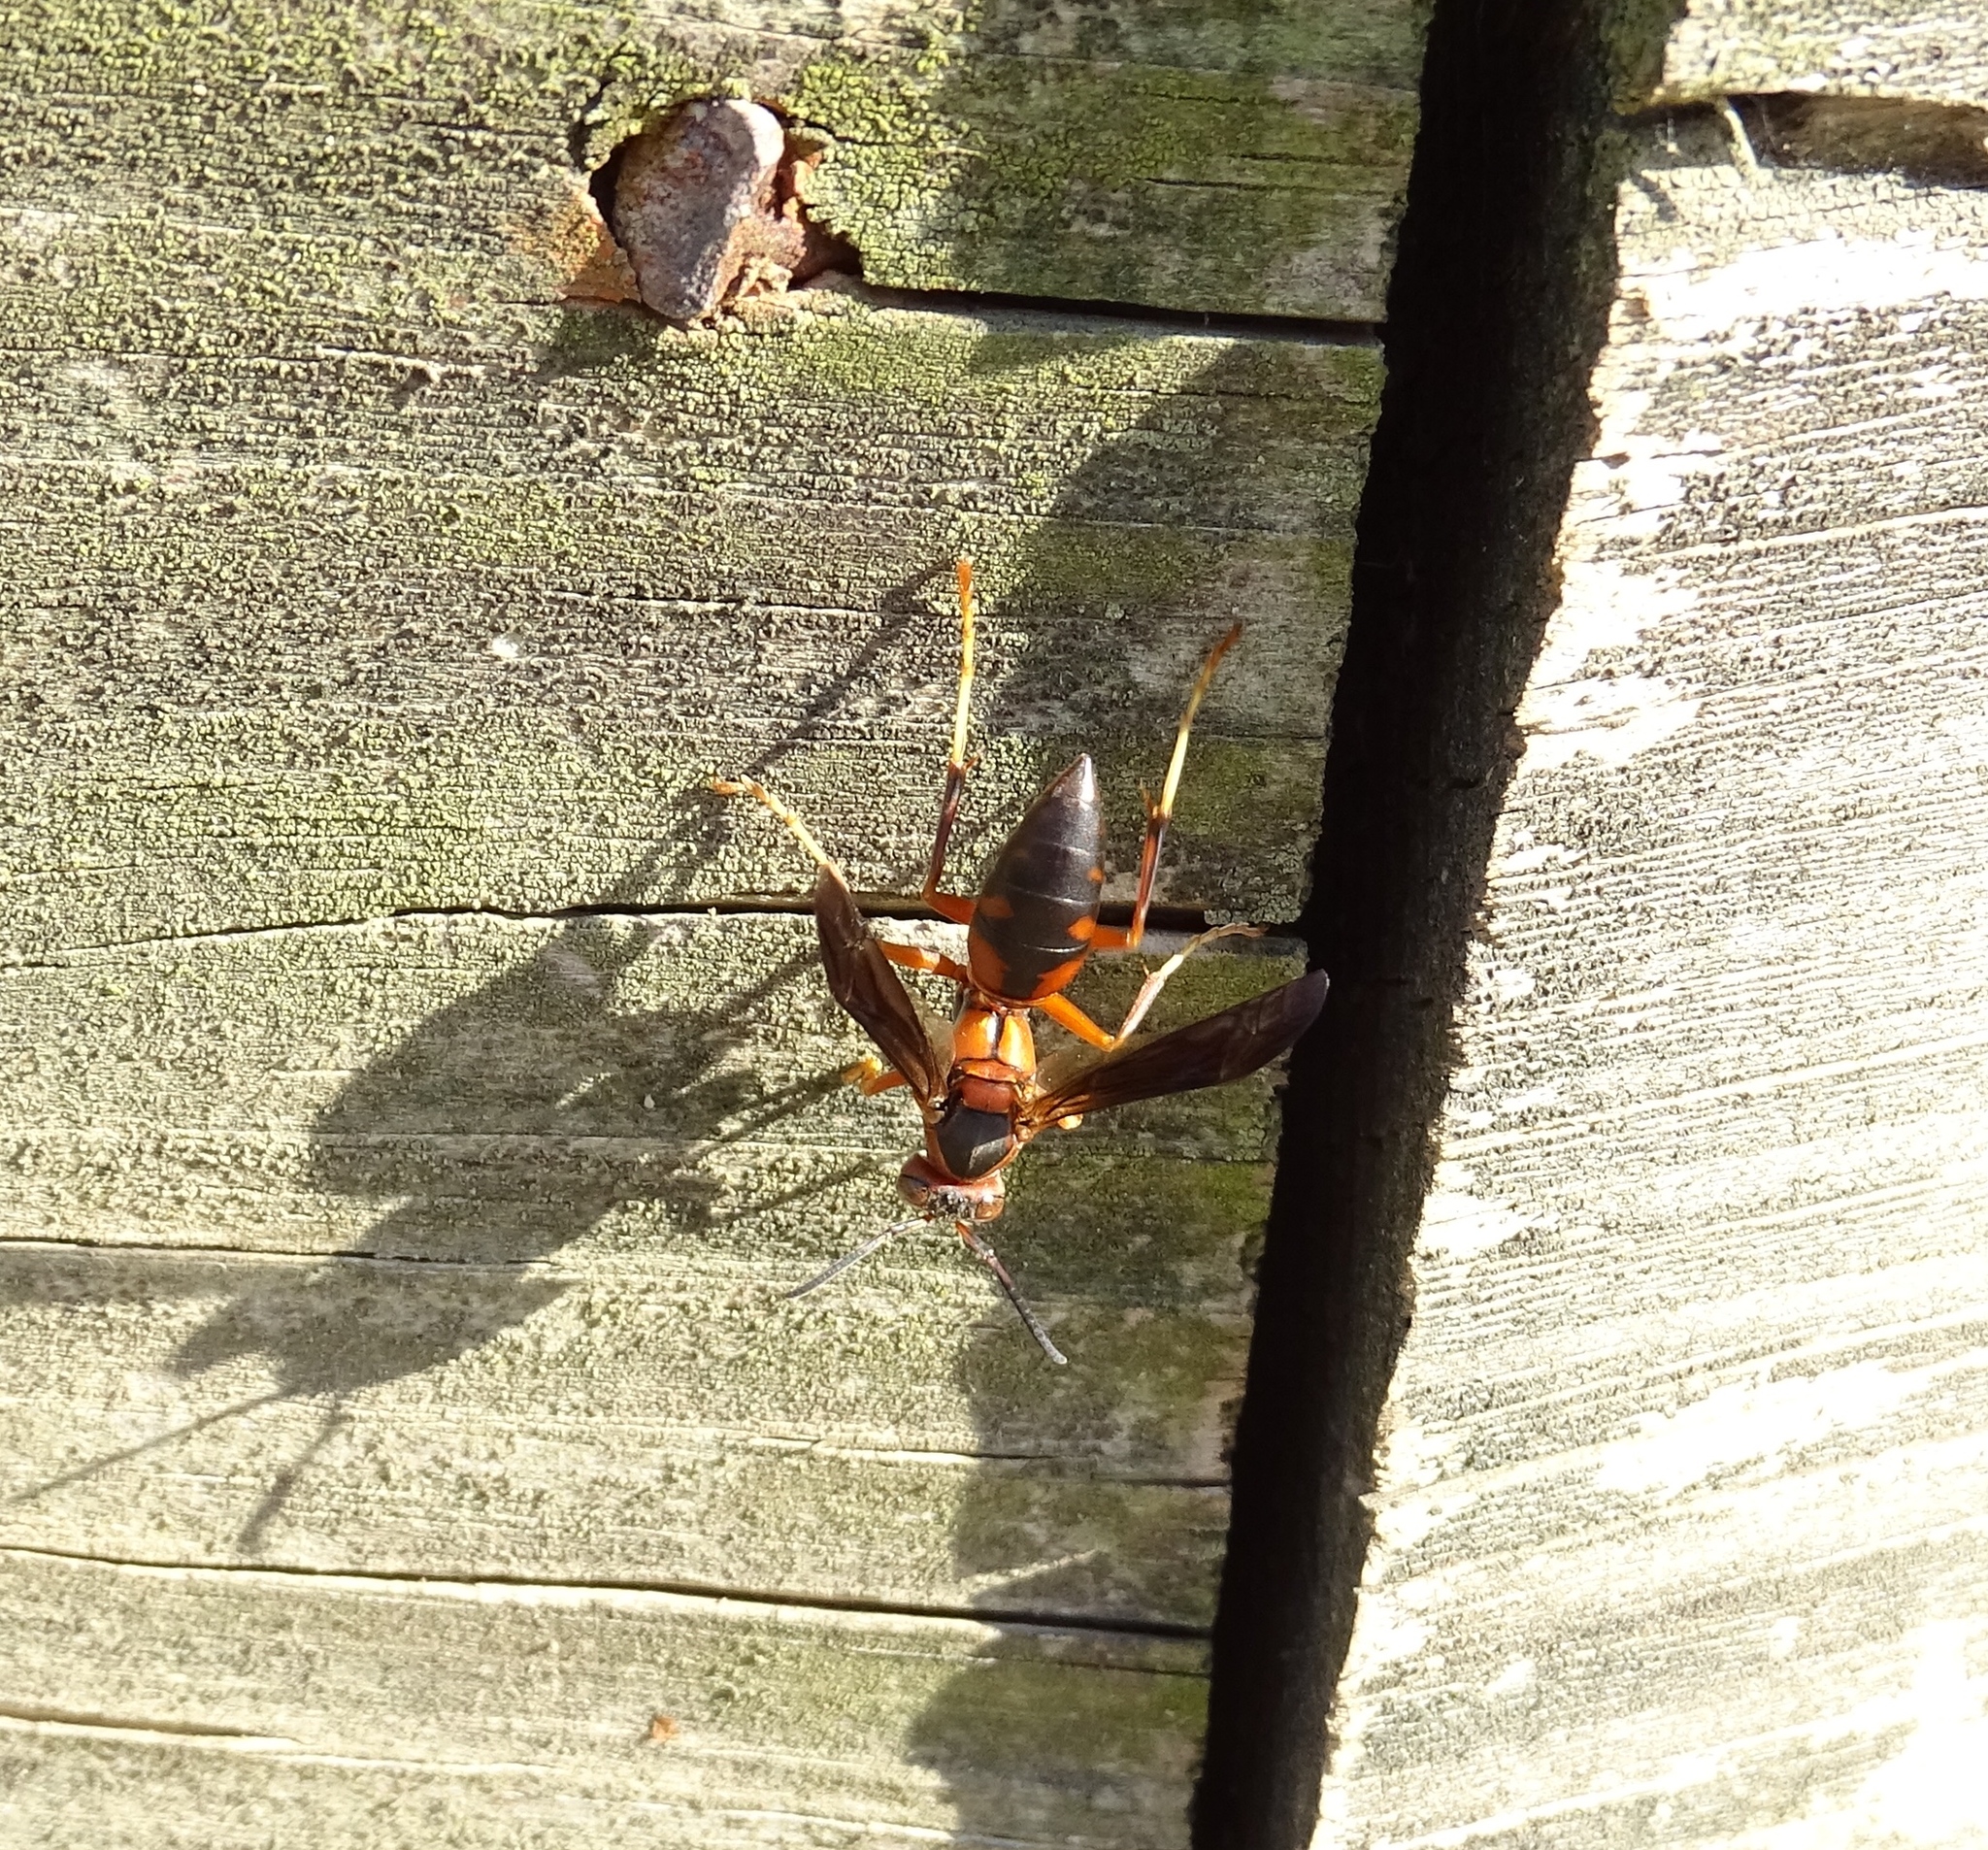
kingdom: Animalia
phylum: Arthropoda
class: Insecta
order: Hymenoptera
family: Eumenidae
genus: Polistes
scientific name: Polistes fuscatus
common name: Dark paper wasp
